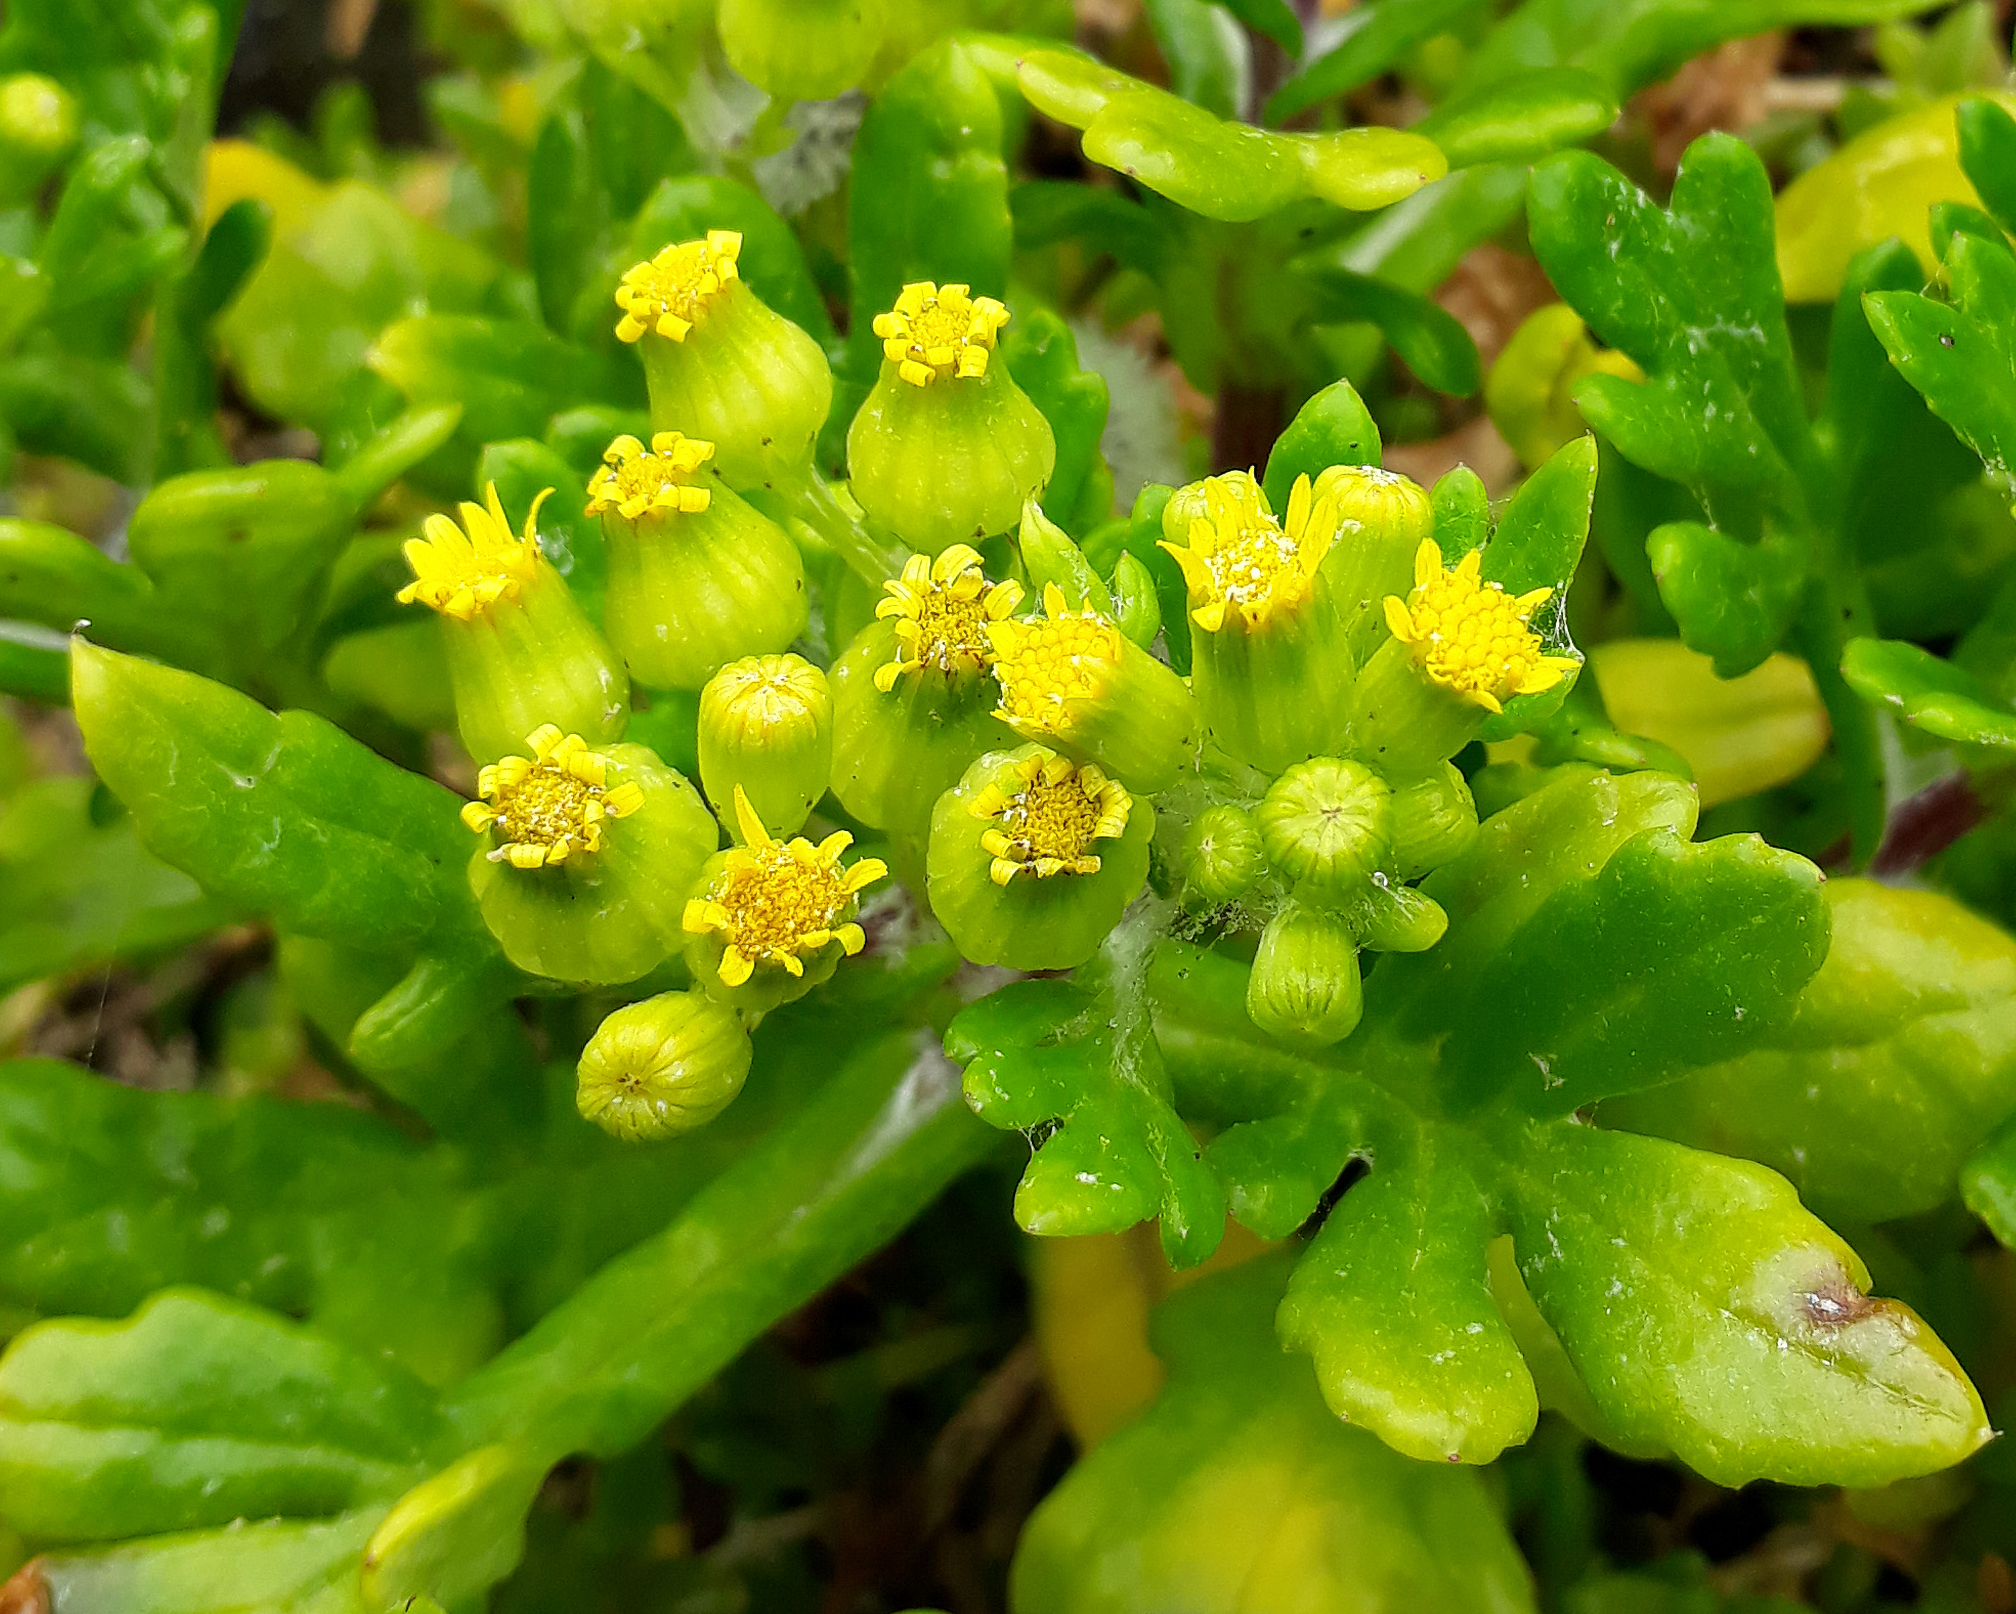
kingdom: Plantae
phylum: Tracheophyta
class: Magnoliopsida
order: Asterales
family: Asteraceae
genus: Senecio
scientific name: Senecio sterquilinus
